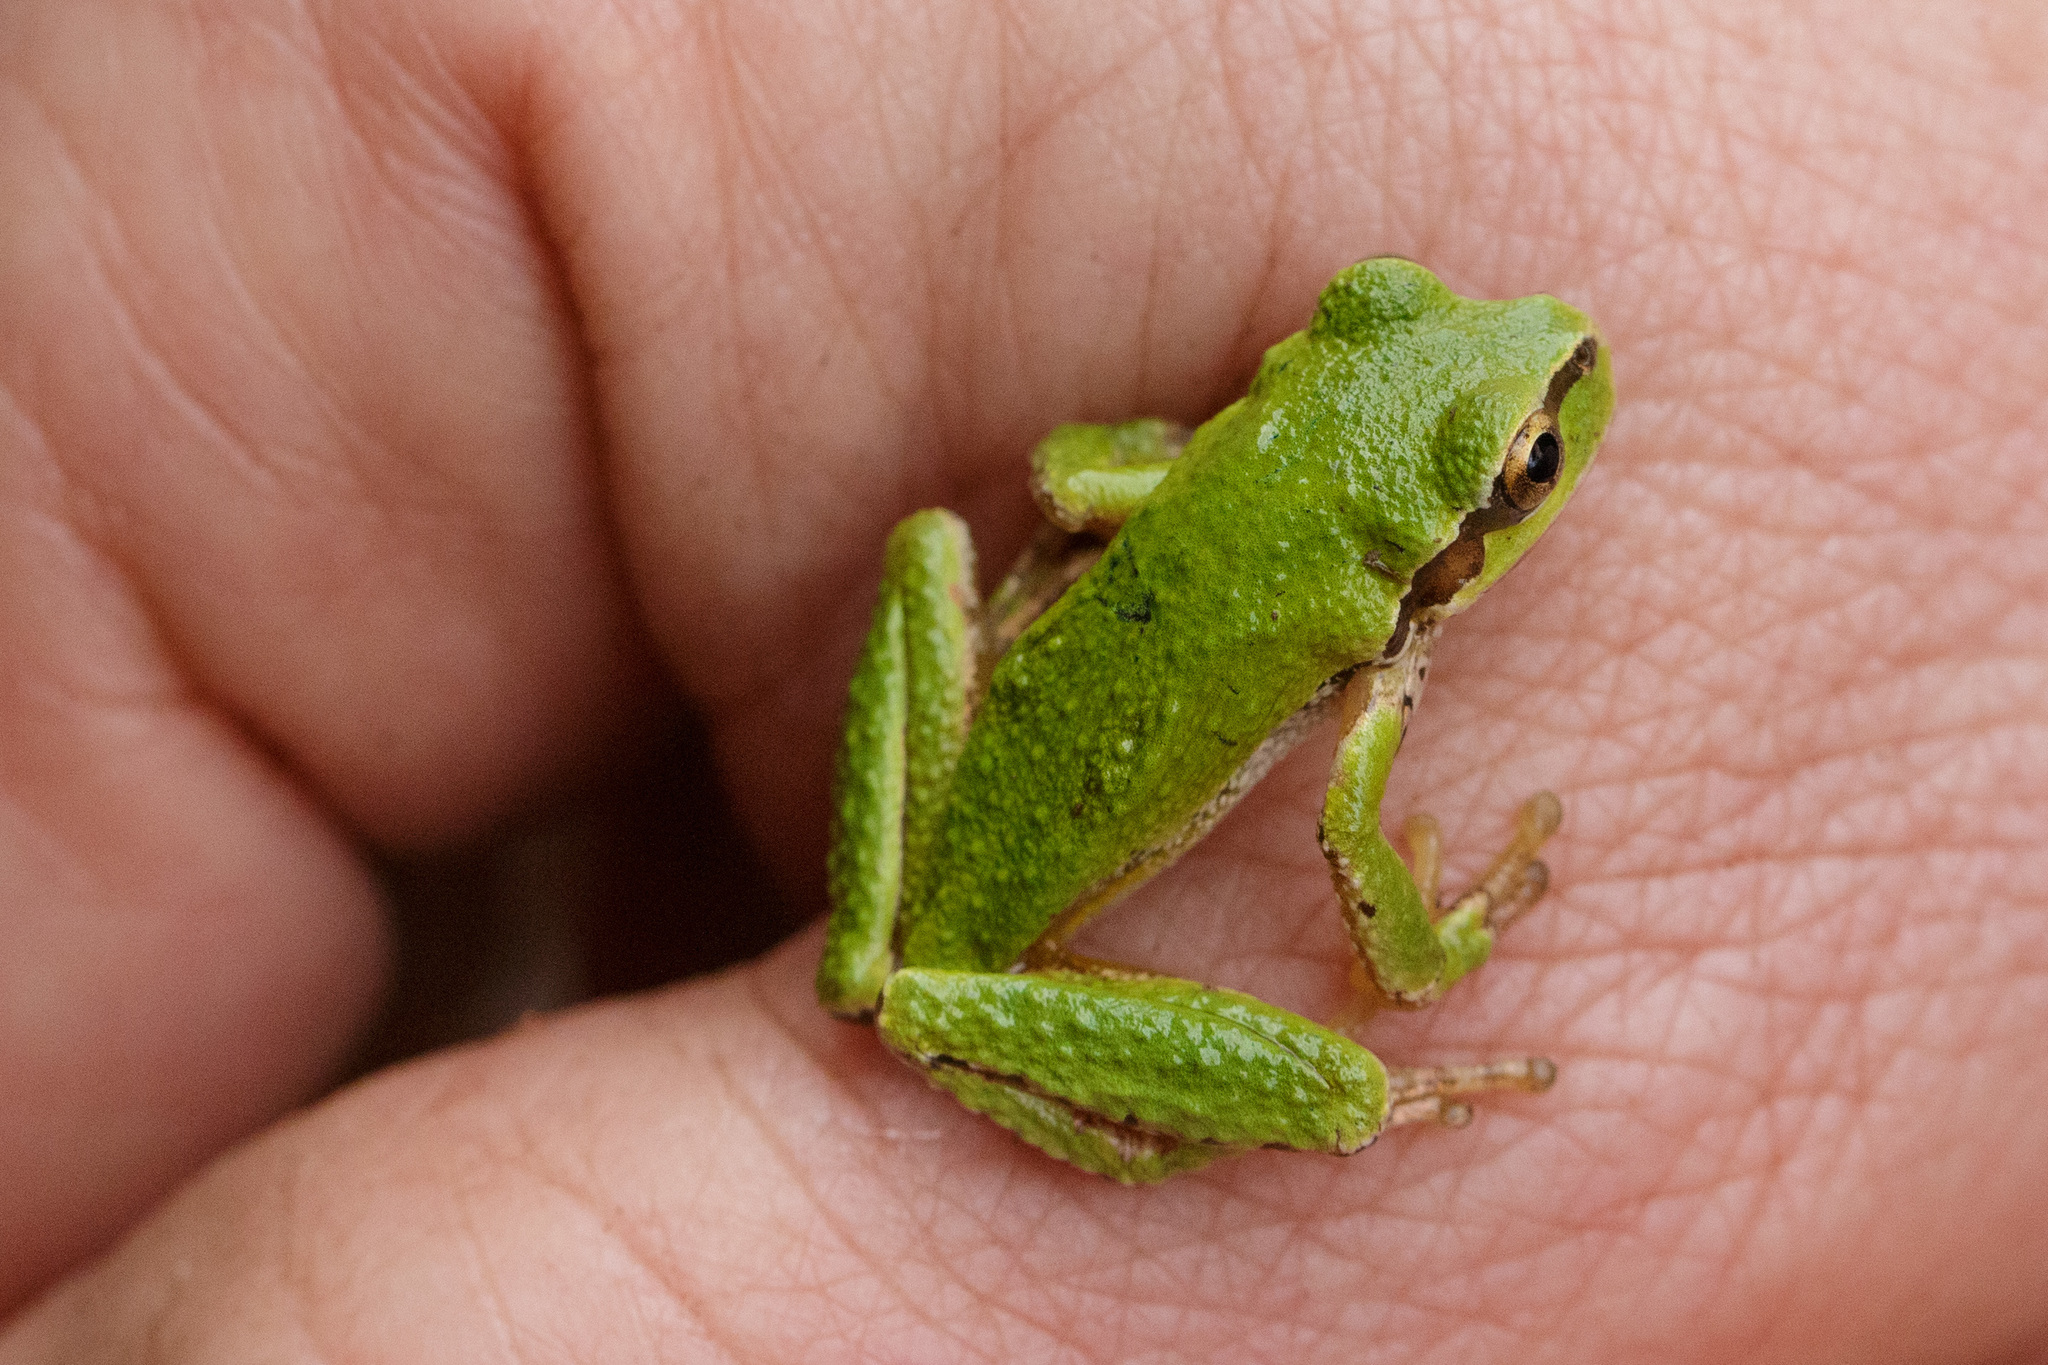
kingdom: Animalia
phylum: Chordata
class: Amphibia
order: Anura
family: Hylidae
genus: Pseudacris
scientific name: Pseudacris regilla
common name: Pacific chorus frog
